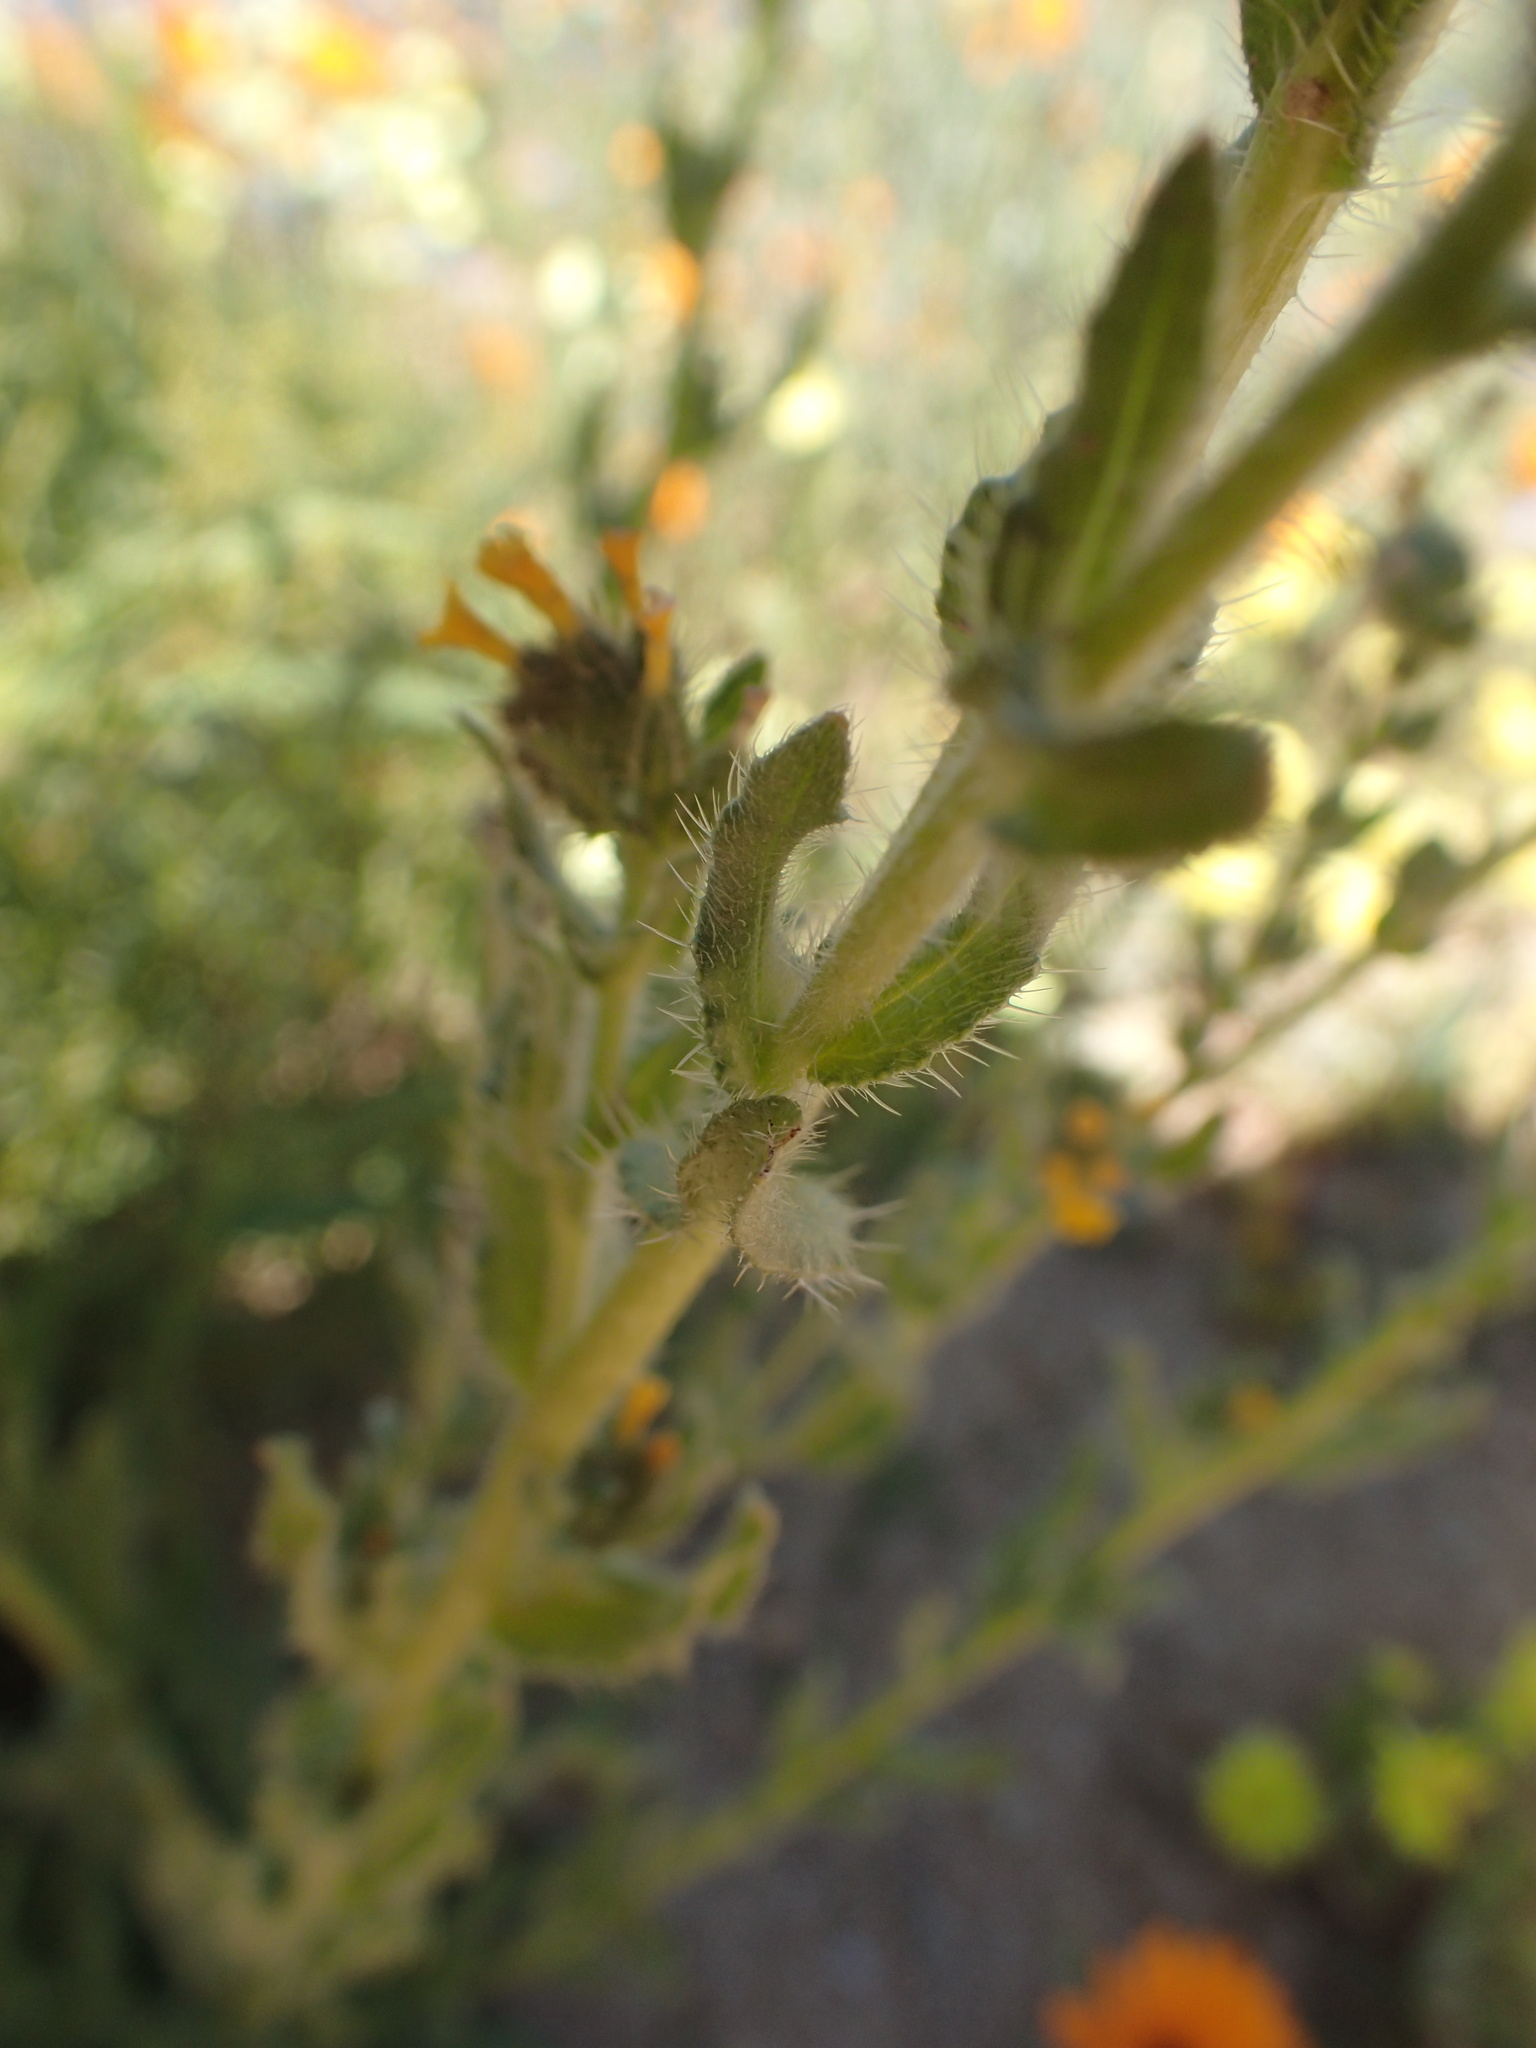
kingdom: Plantae
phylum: Tracheophyta
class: Magnoliopsida
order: Boraginales
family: Boraginaceae
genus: Amsinckia
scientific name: Amsinckia menziesii
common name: Menzies' fiddleneck
